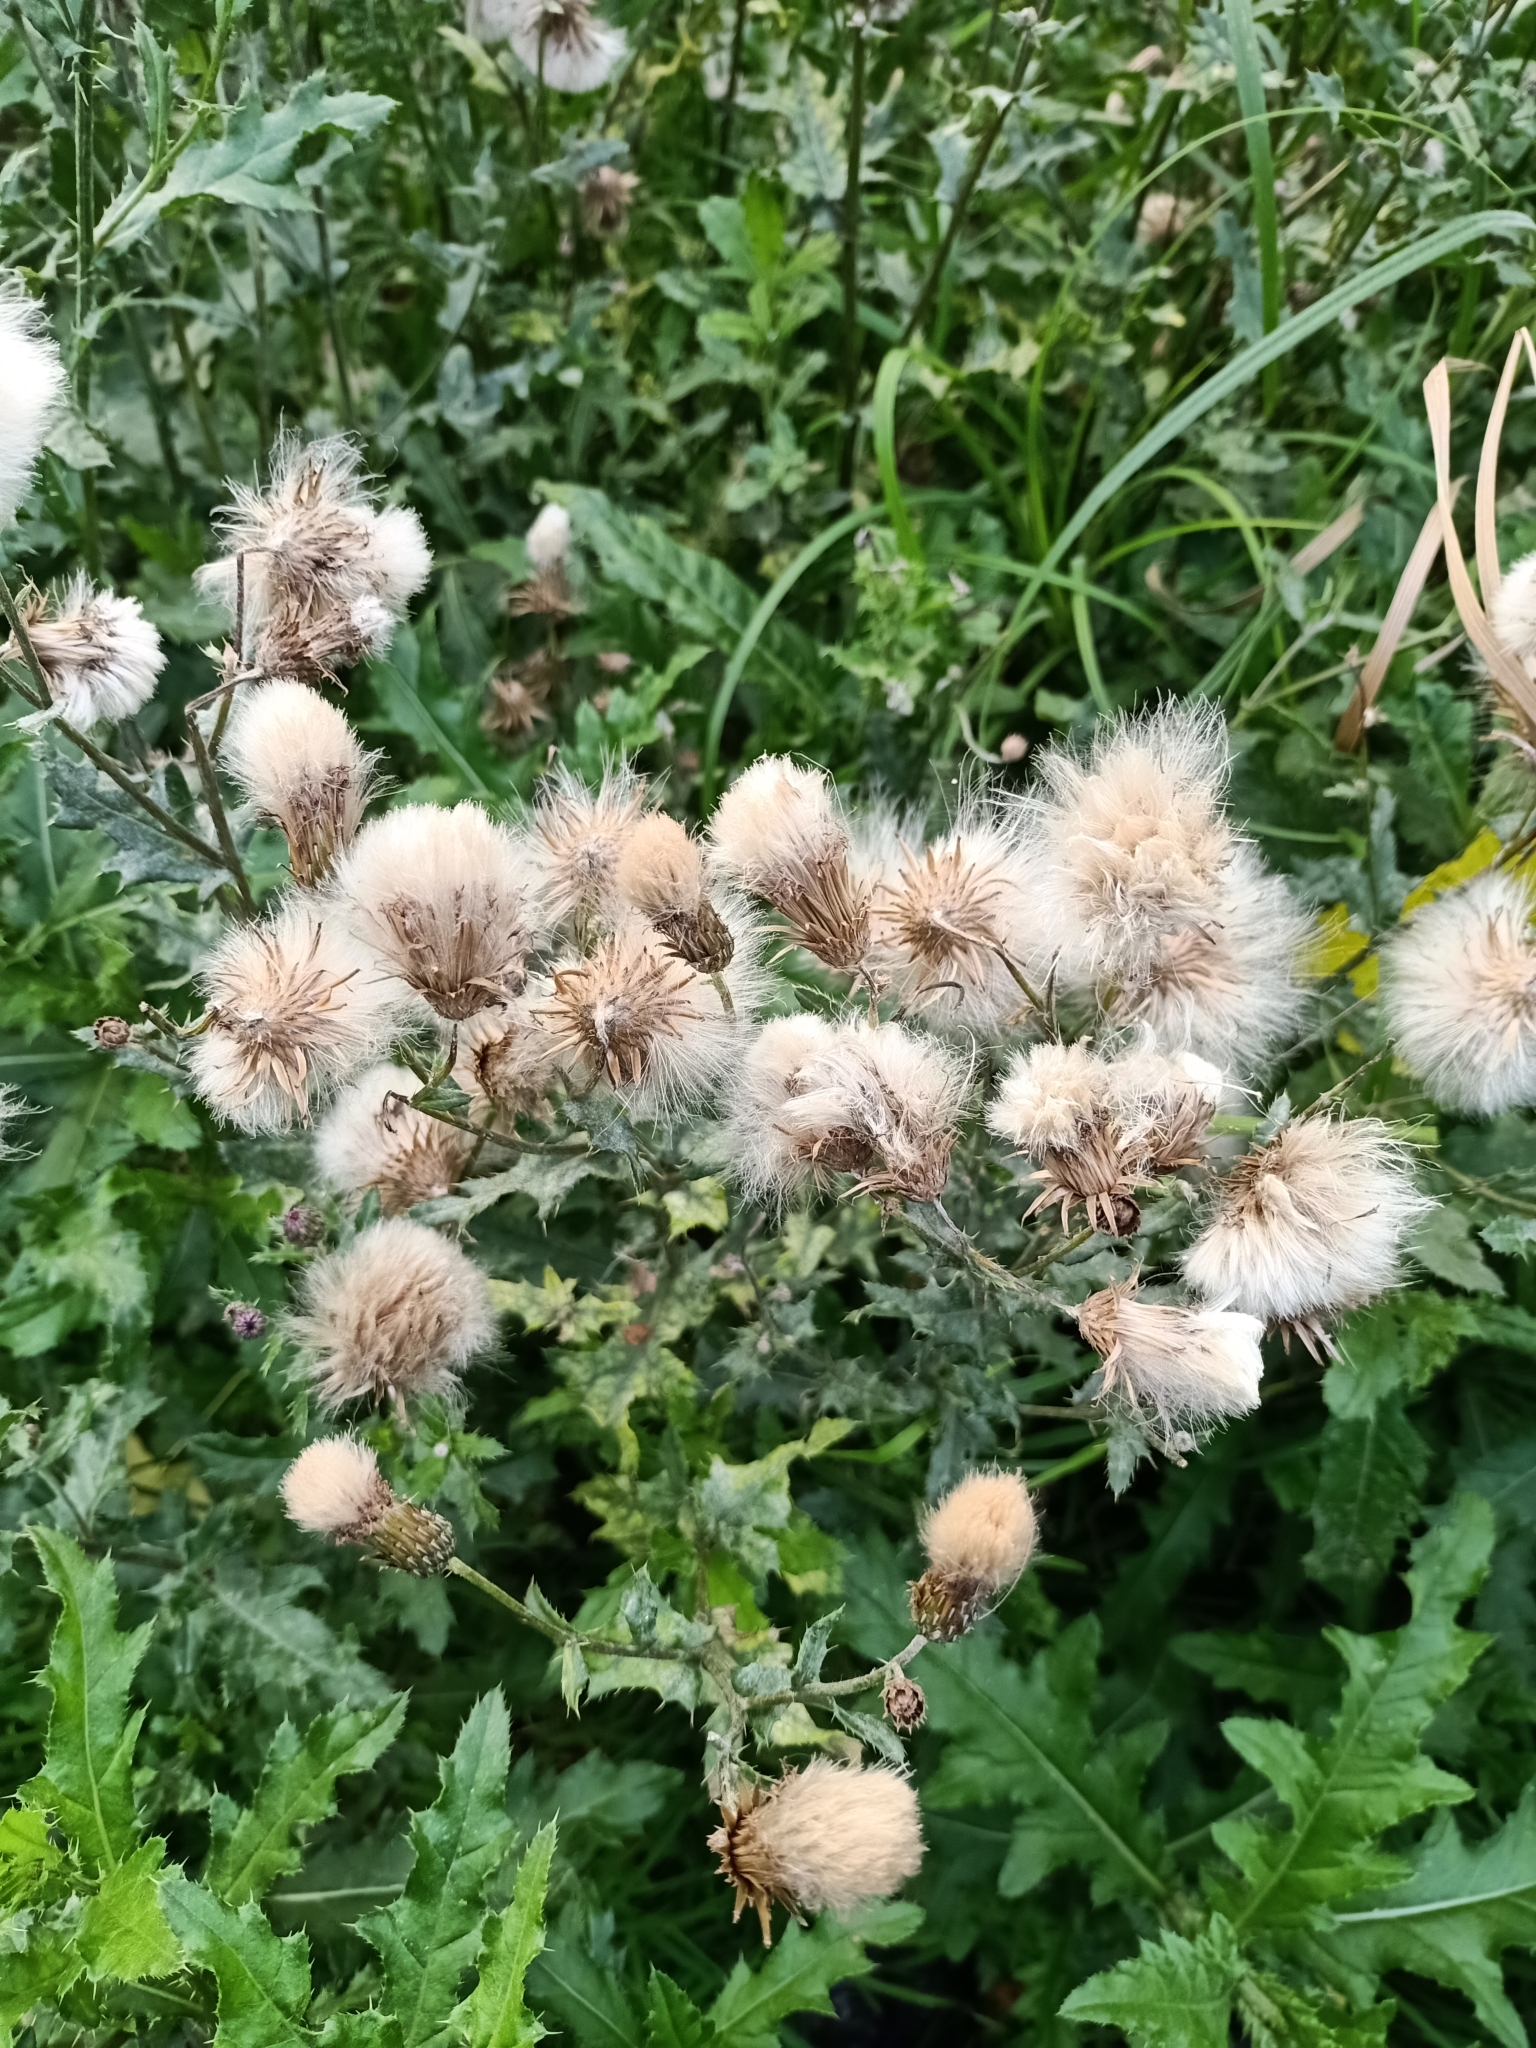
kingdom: Plantae
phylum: Tracheophyta
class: Magnoliopsida
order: Asterales
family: Asteraceae
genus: Cirsium
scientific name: Cirsium arvense
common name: Creeping thistle
